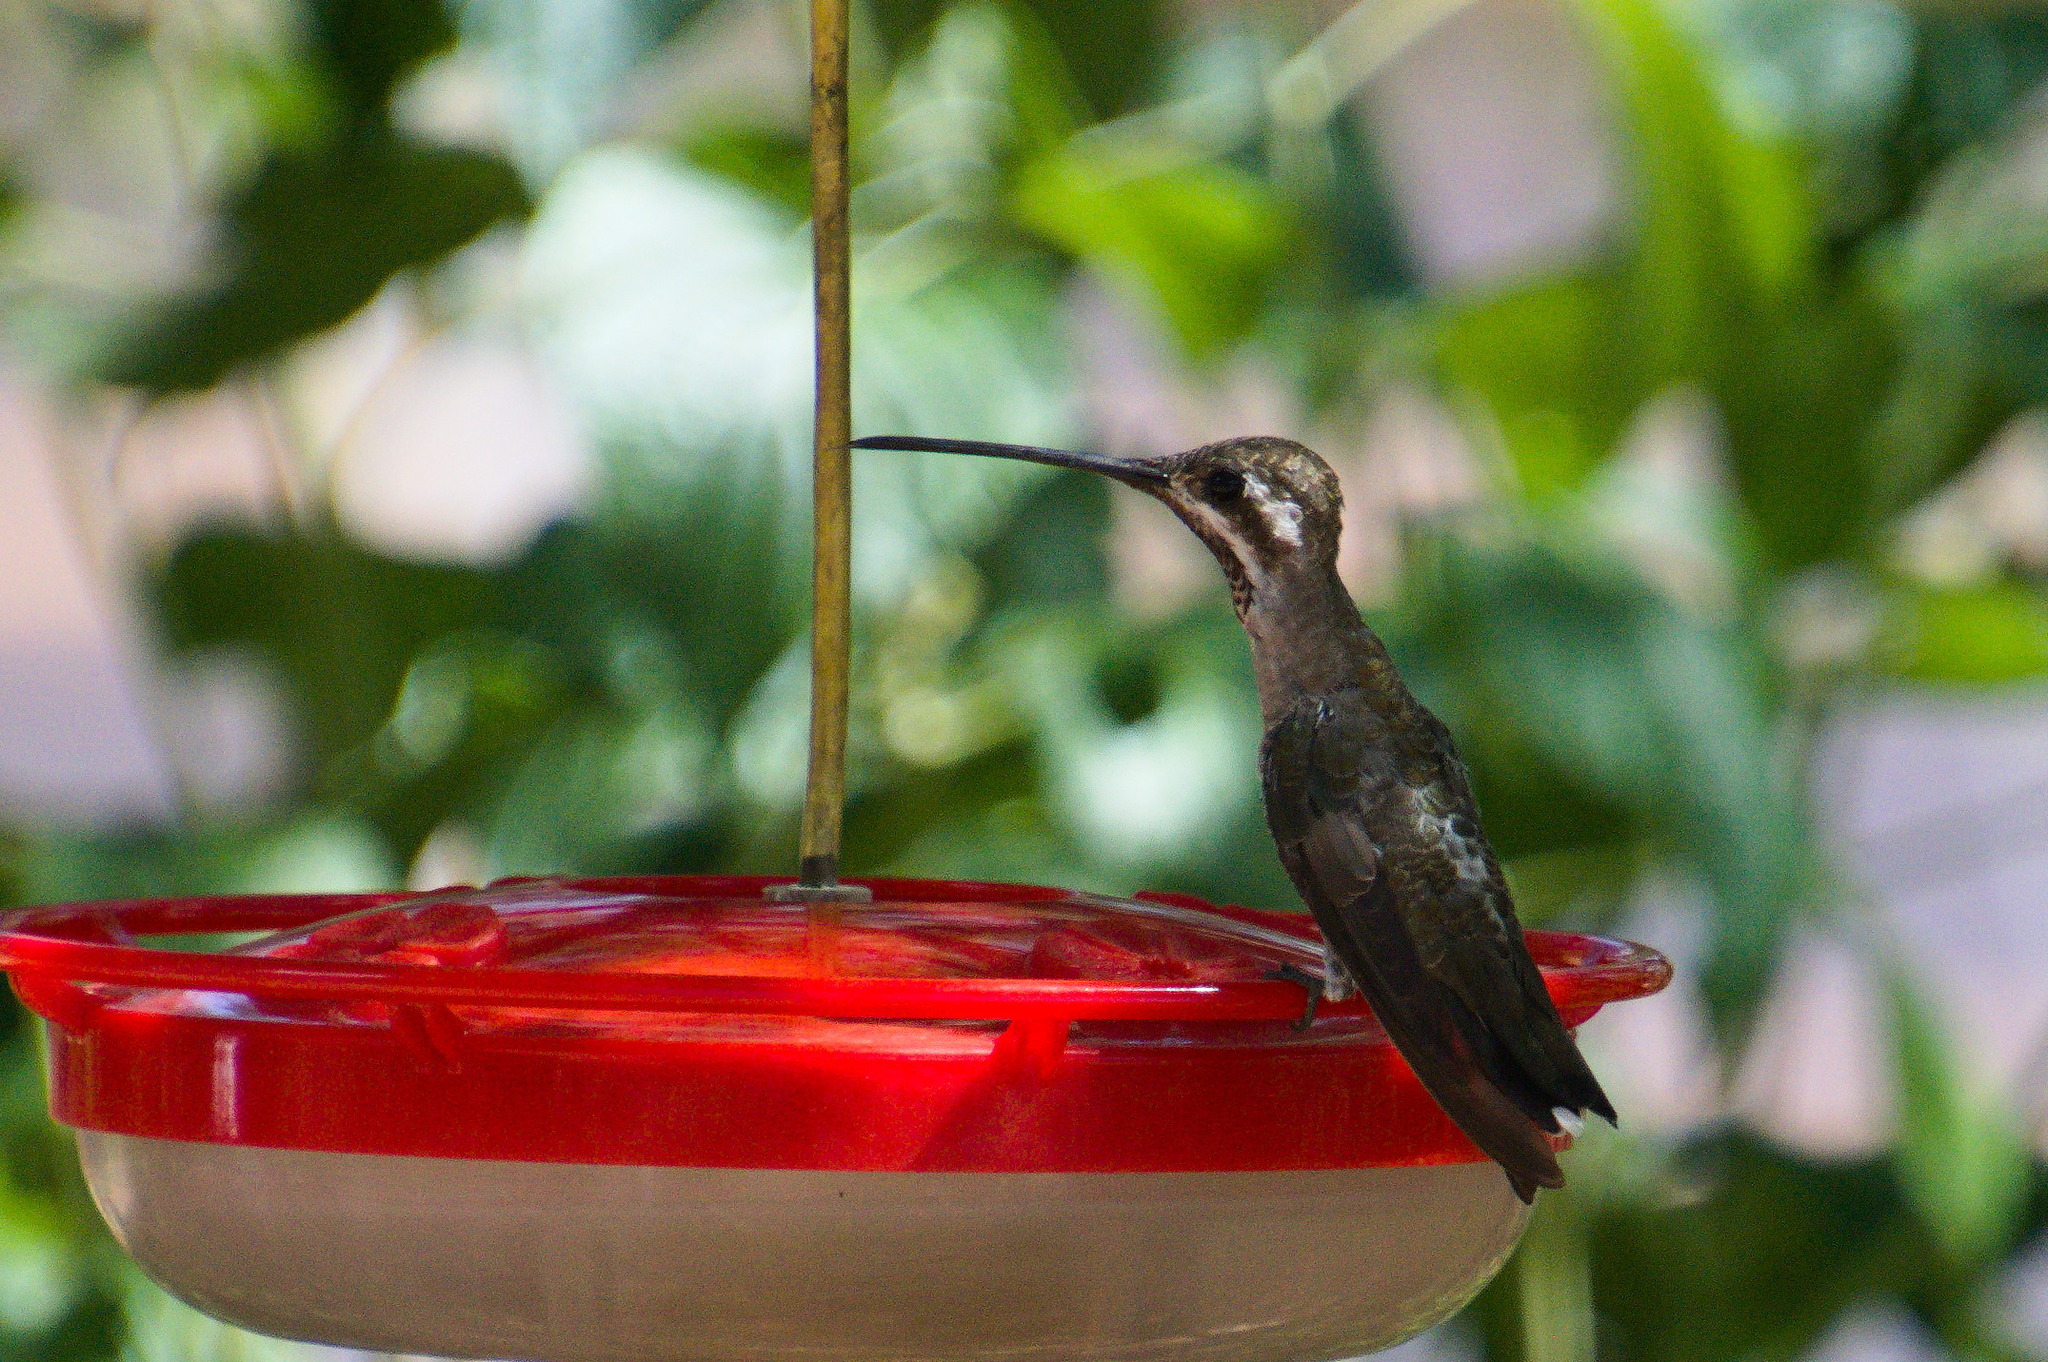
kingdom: Animalia
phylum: Chordata
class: Aves
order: Apodiformes
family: Trochilidae
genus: Heliomaster
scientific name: Heliomaster constantii
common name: Plain-capped starthroat
